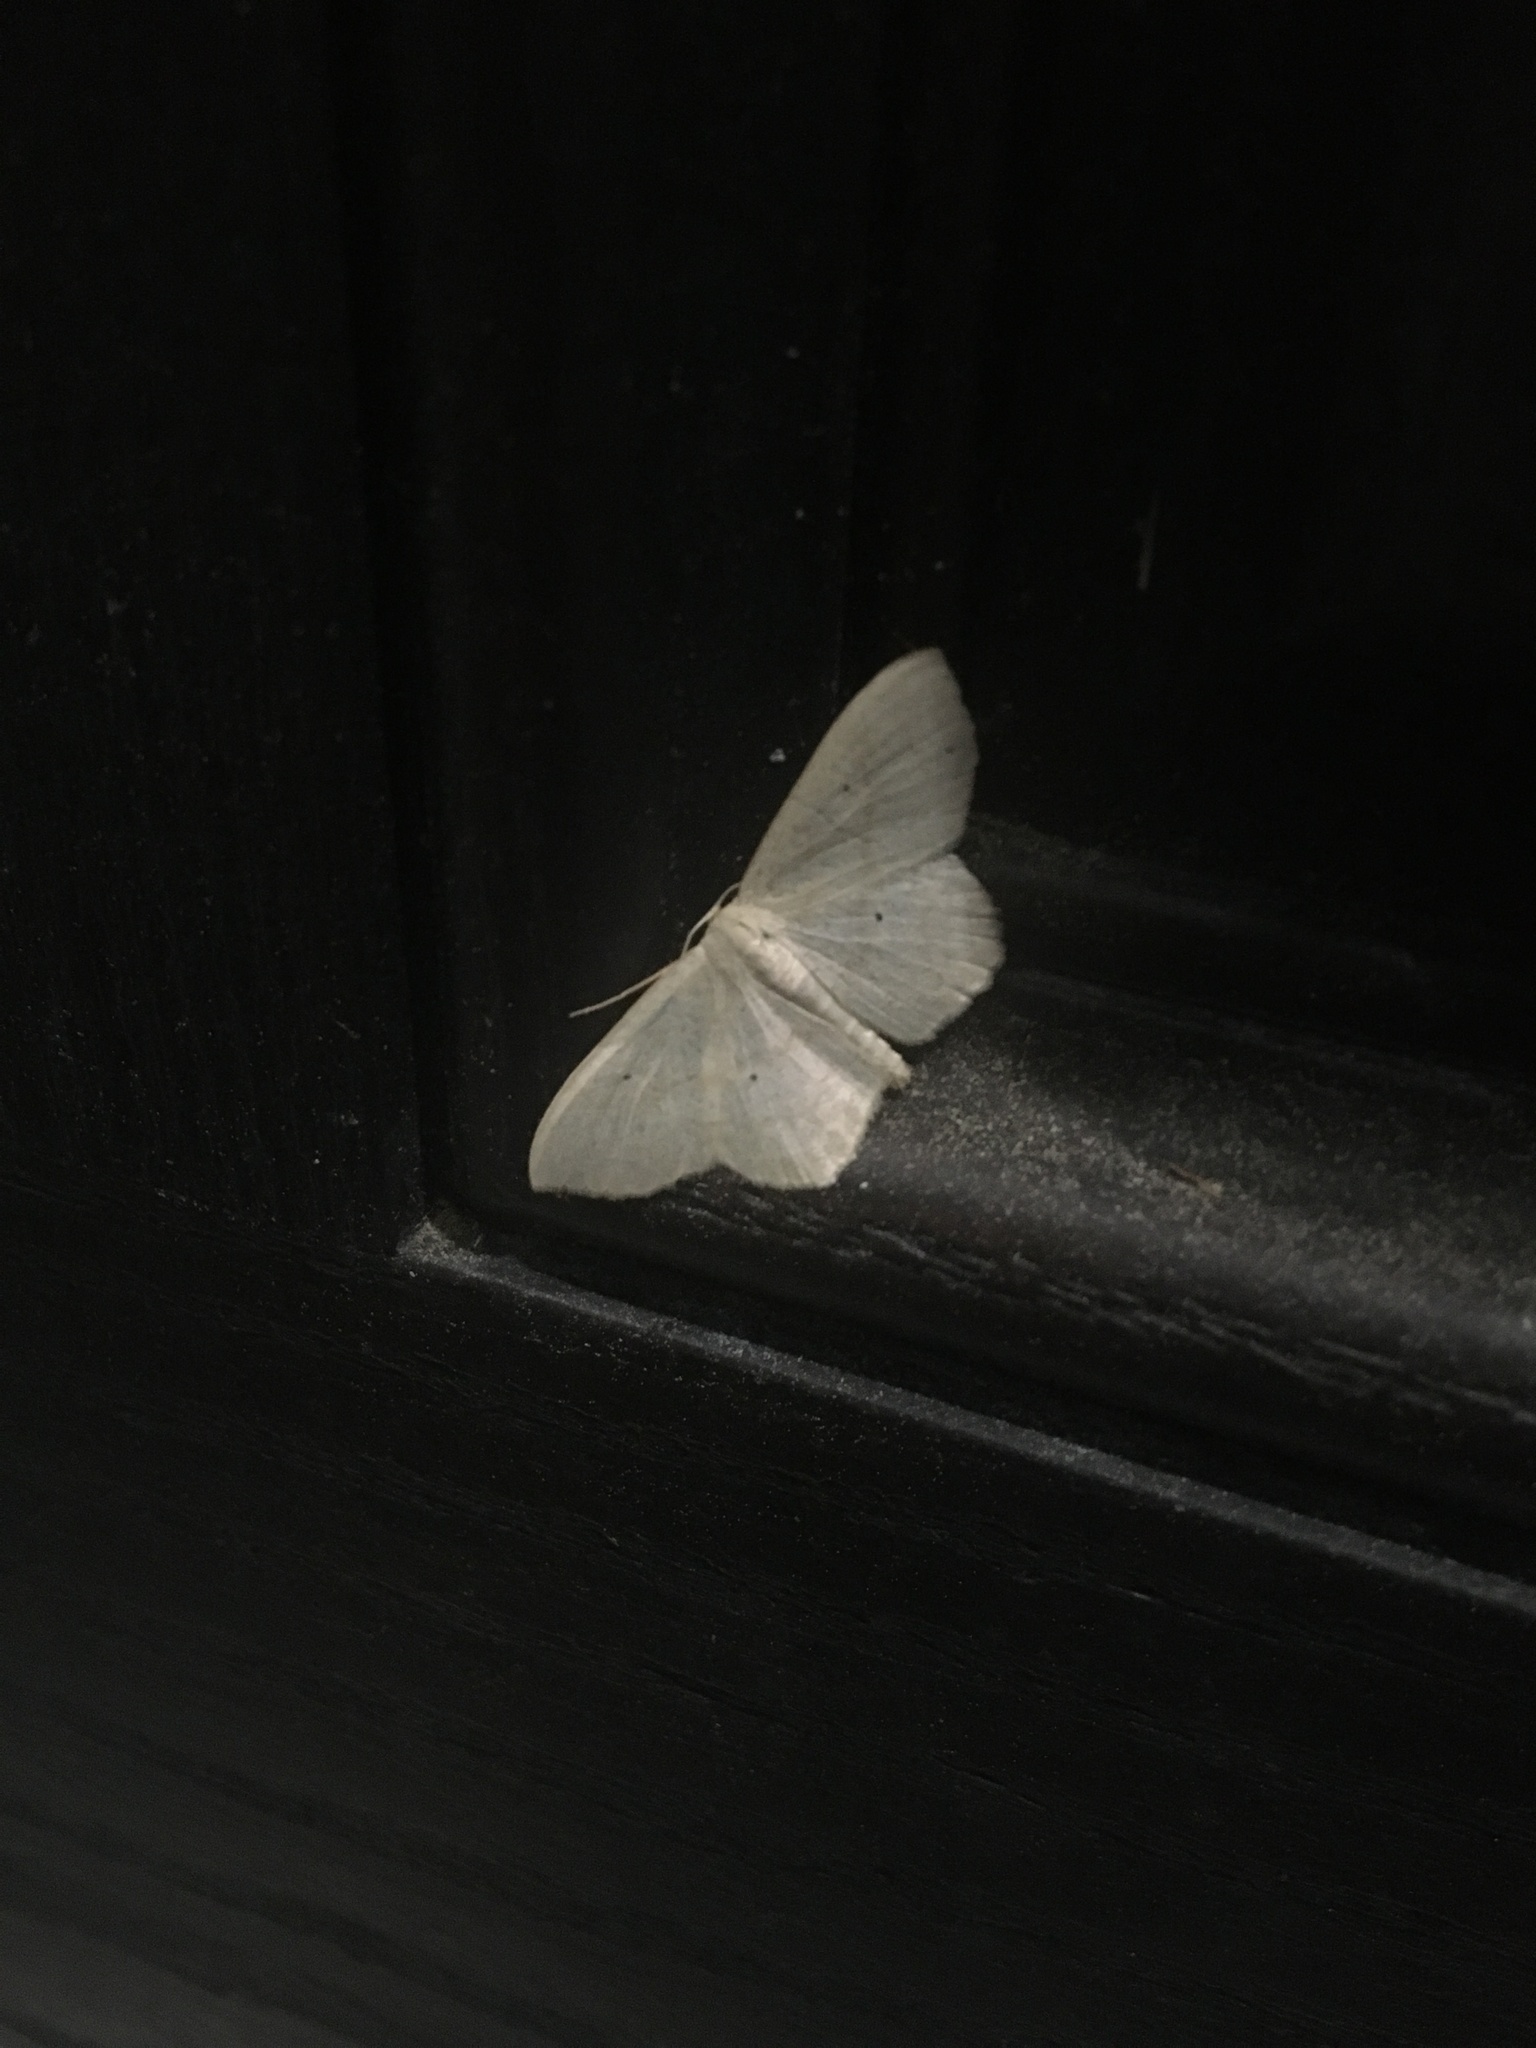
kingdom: Animalia
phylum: Arthropoda
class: Insecta
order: Lepidoptera
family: Geometridae
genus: Scopula
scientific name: Scopula limboundata
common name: Large lace border
